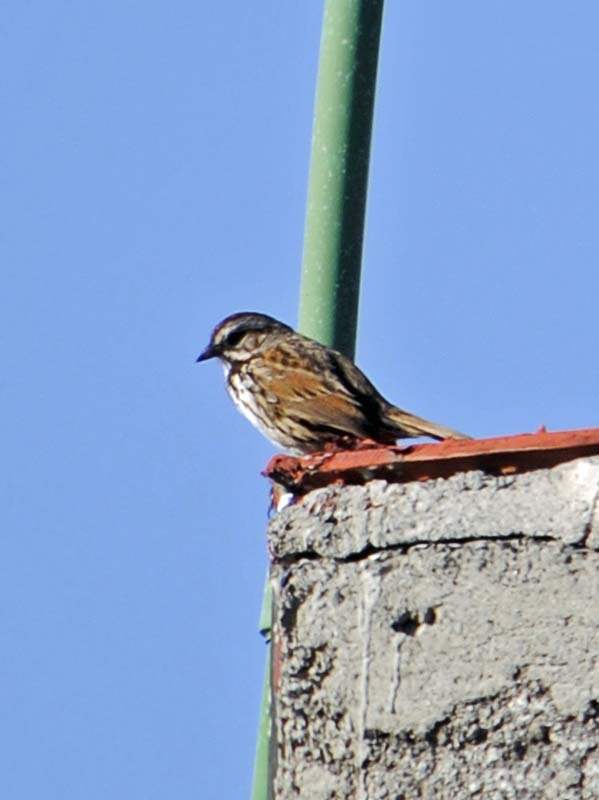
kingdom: Animalia
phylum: Chordata
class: Aves
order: Passeriformes
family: Passerellidae
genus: Melospiza
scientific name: Melospiza melodia
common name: Song sparrow
